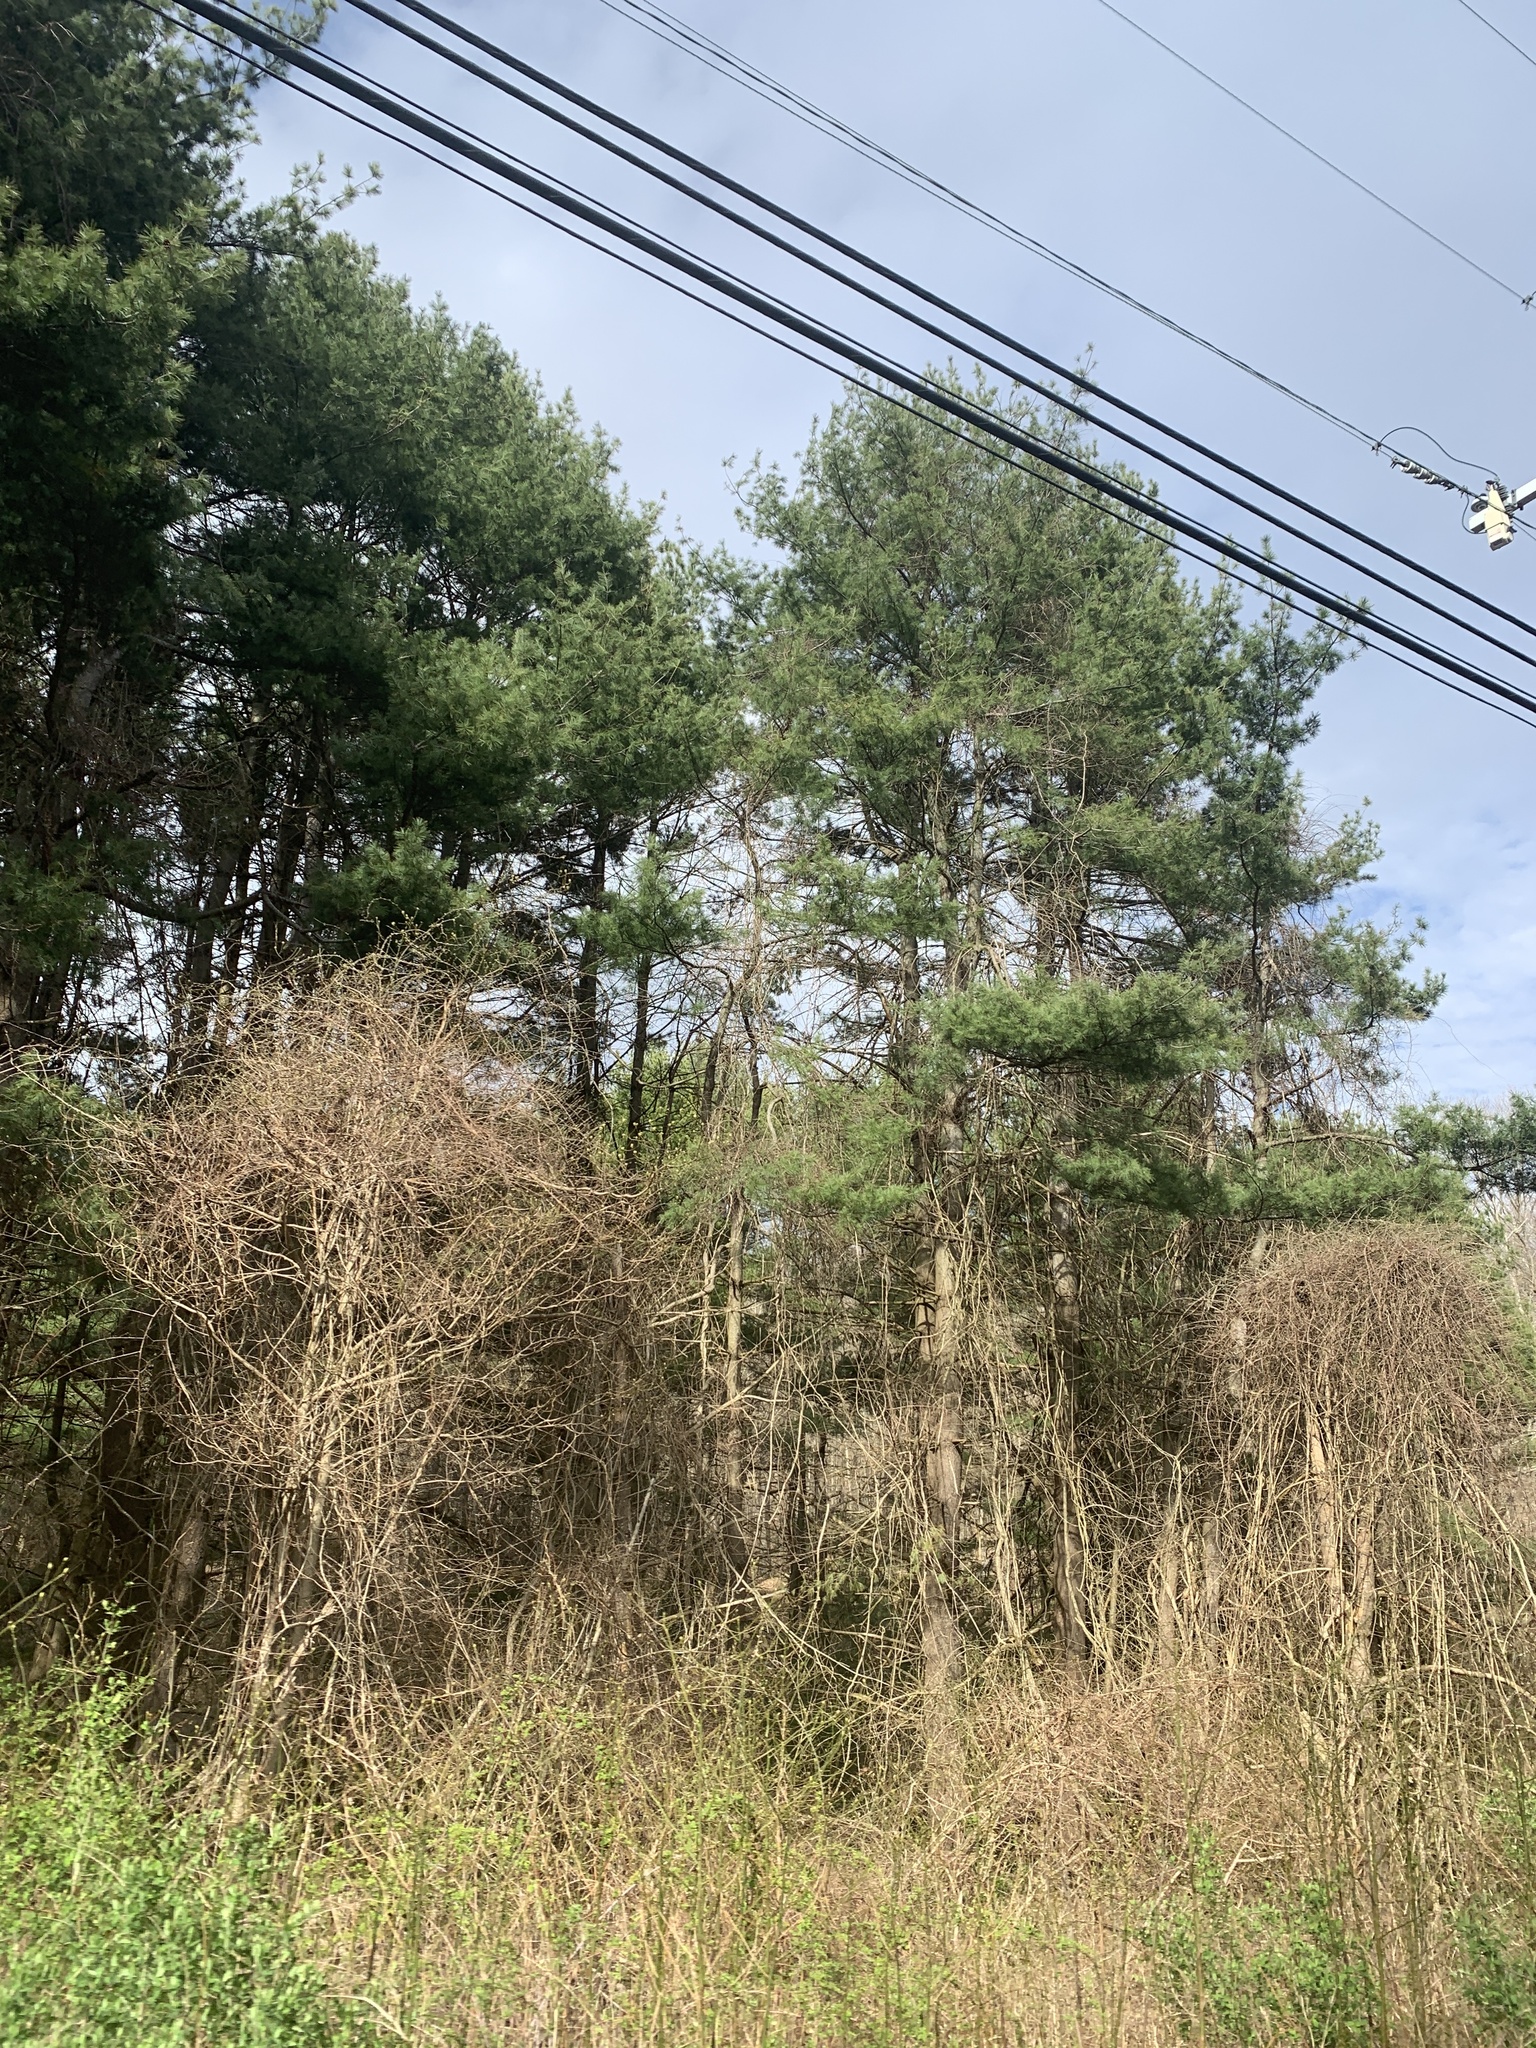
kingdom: Plantae
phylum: Tracheophyta
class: Pinopsida
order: Pinales
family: Pinaceae
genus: Pinus
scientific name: Pinus strobus
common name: Weymouth pine
